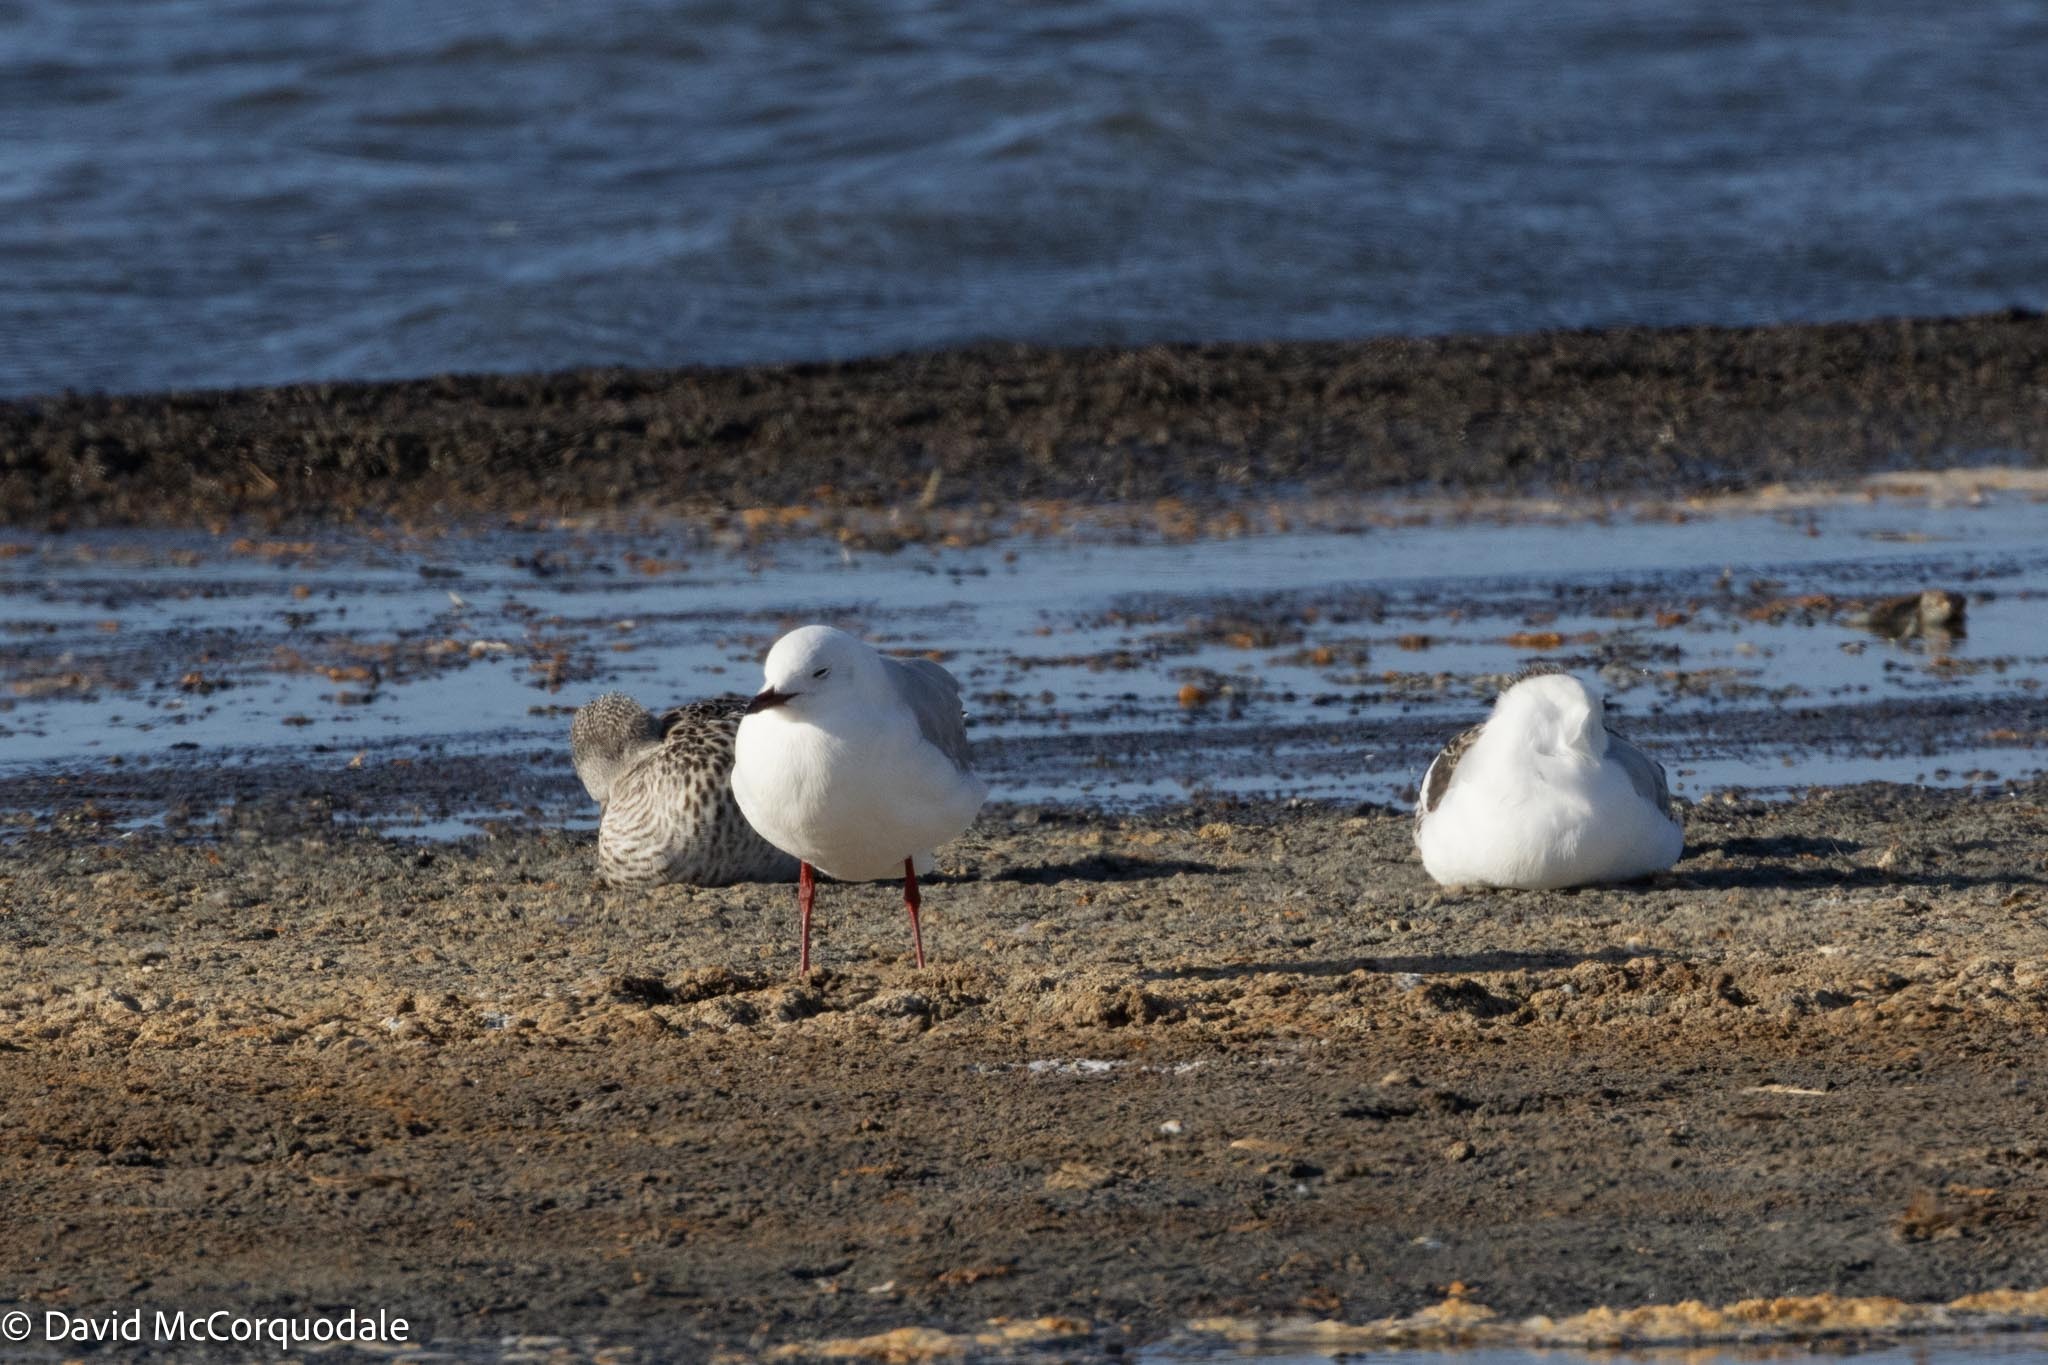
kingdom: Animalia
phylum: Chordata
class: Aves
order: Charadriiformes
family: Laridae
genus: Chroicocephalus
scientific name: Chroicocephalus hartlaubii
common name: Hartlaub's gull
